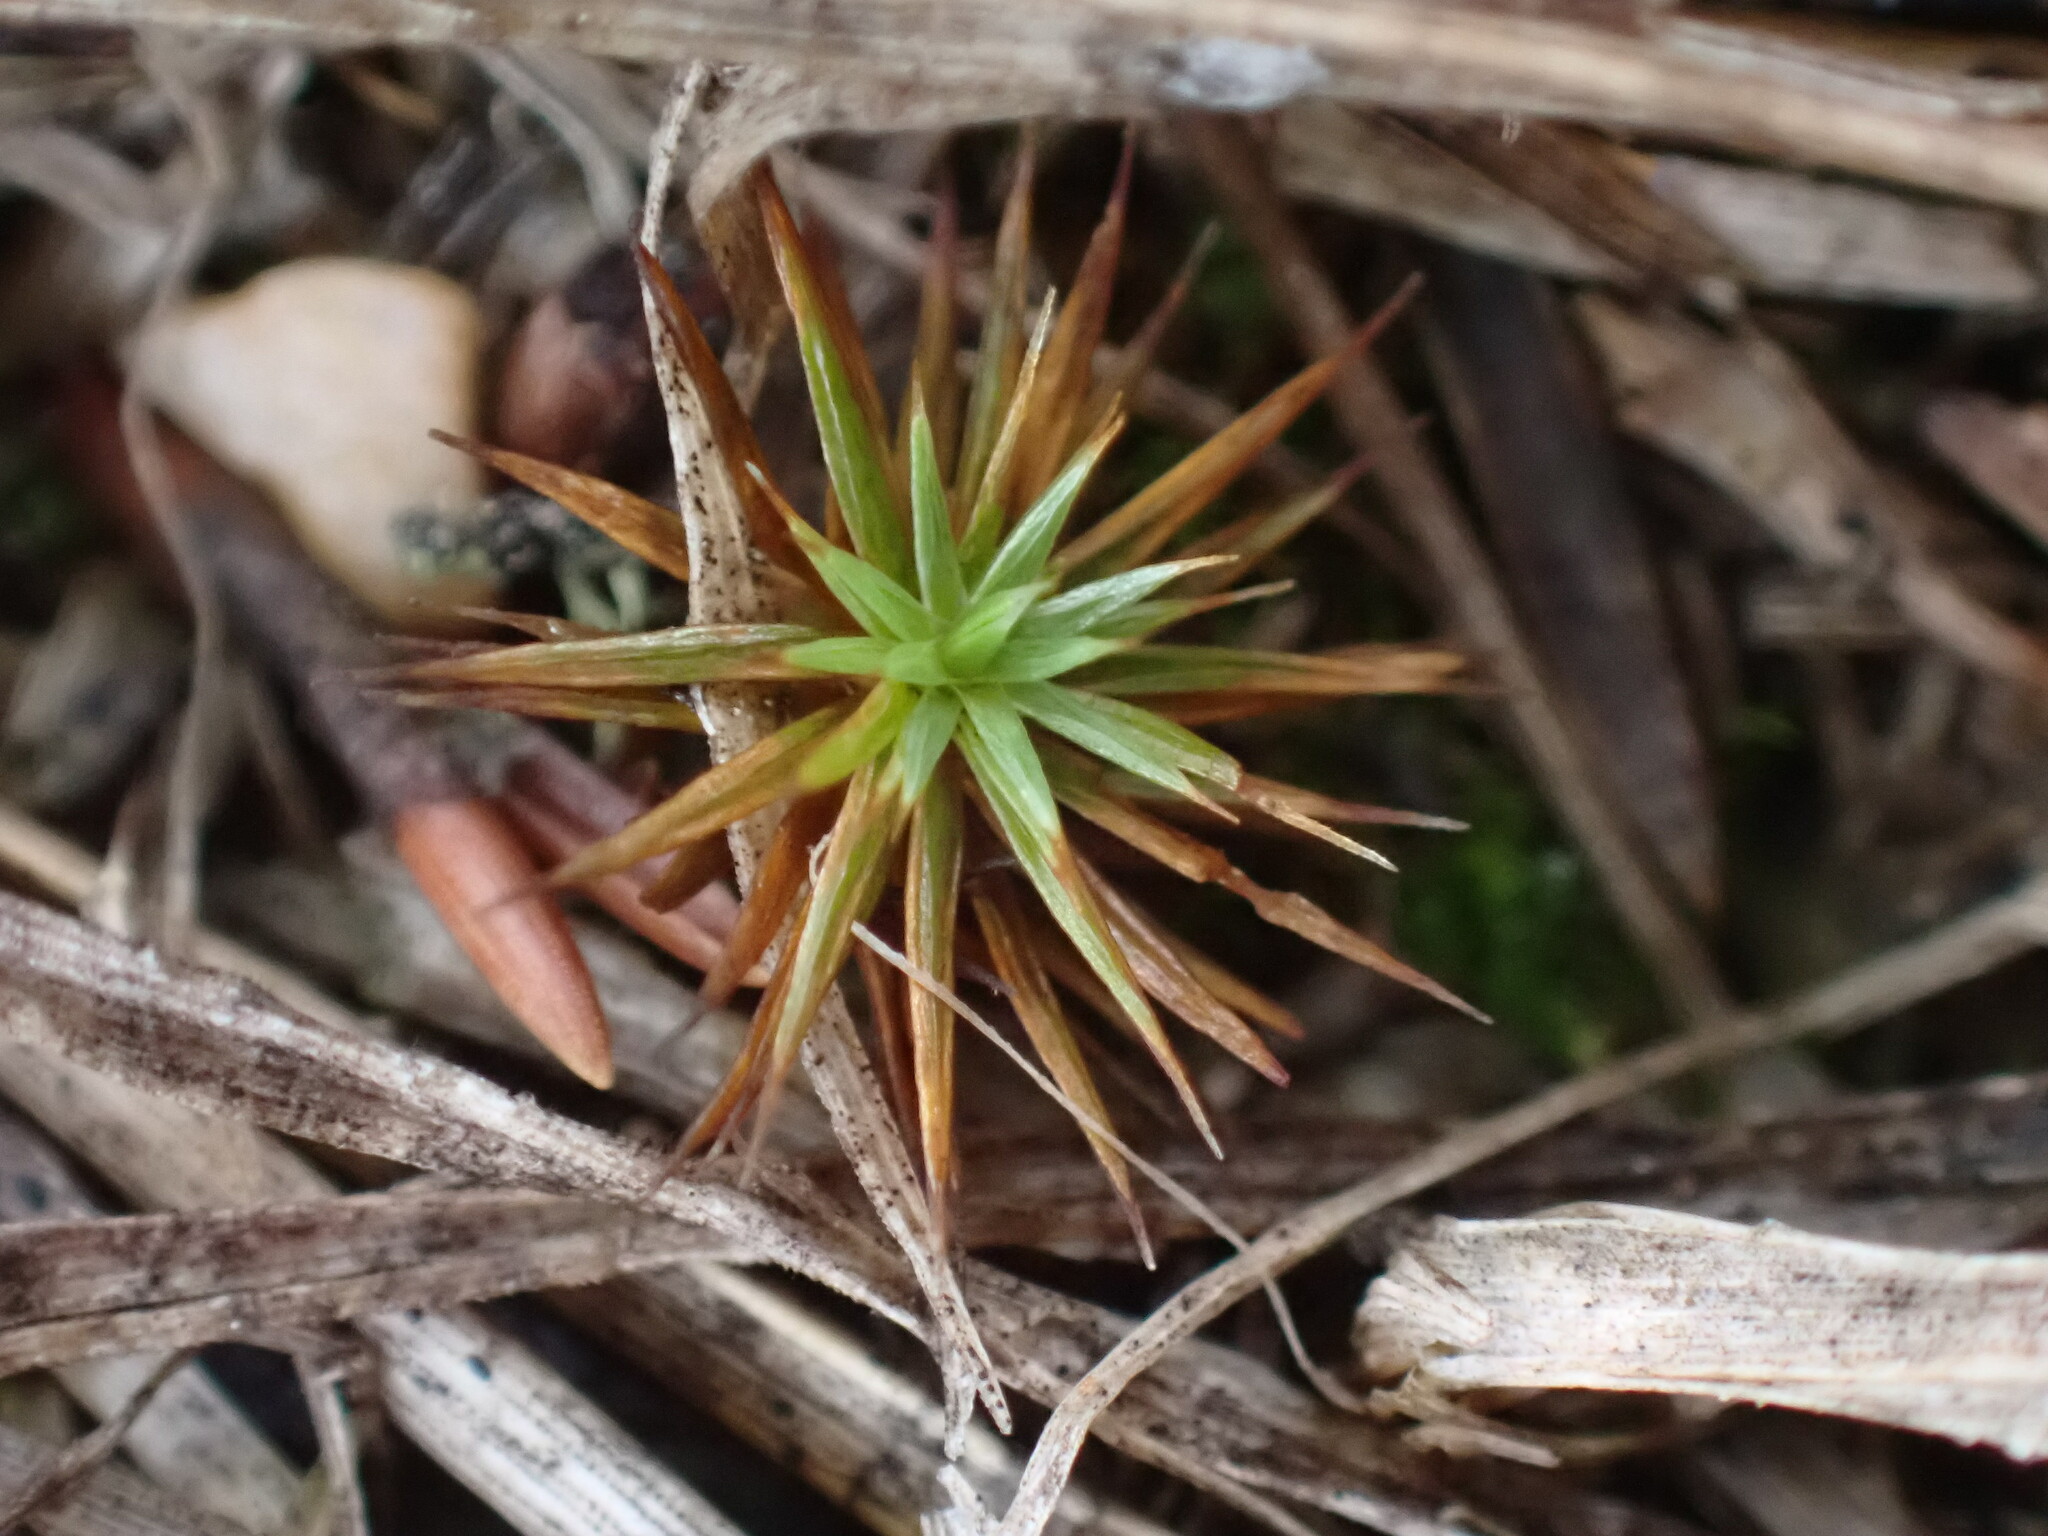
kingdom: Plantae
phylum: Bryophyta
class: Polytrichopsida
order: Polytrichales
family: Polytrichaceae
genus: Polytrichum
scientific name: Polytrichum juniperinum
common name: Juniper haircap moss
